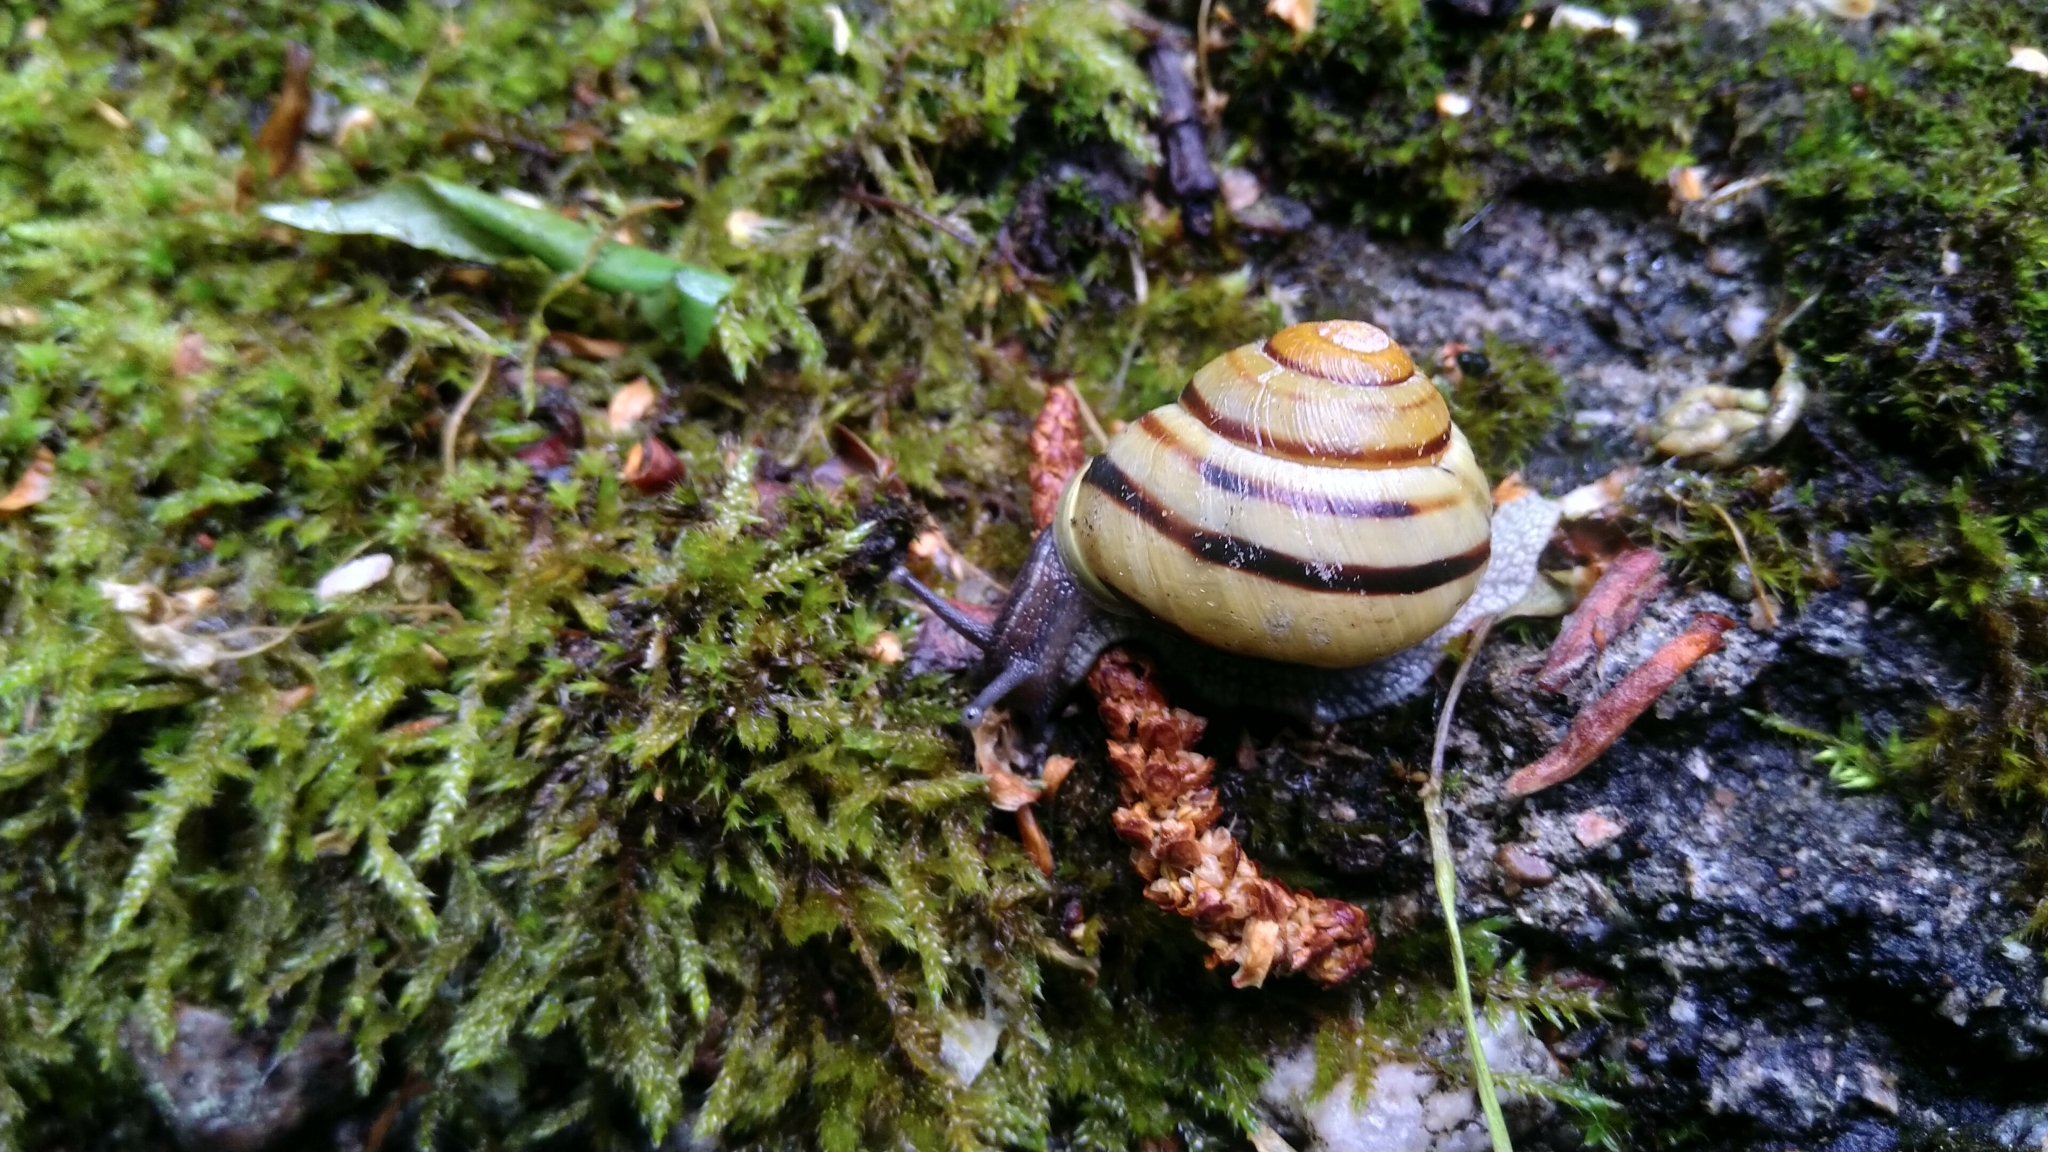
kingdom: Animalia
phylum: Mollusca
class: Gastropoda
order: Stylommatophora
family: Helicidae
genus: Cepaea
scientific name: Cepaea hortensis
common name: White-lip gardensnail
